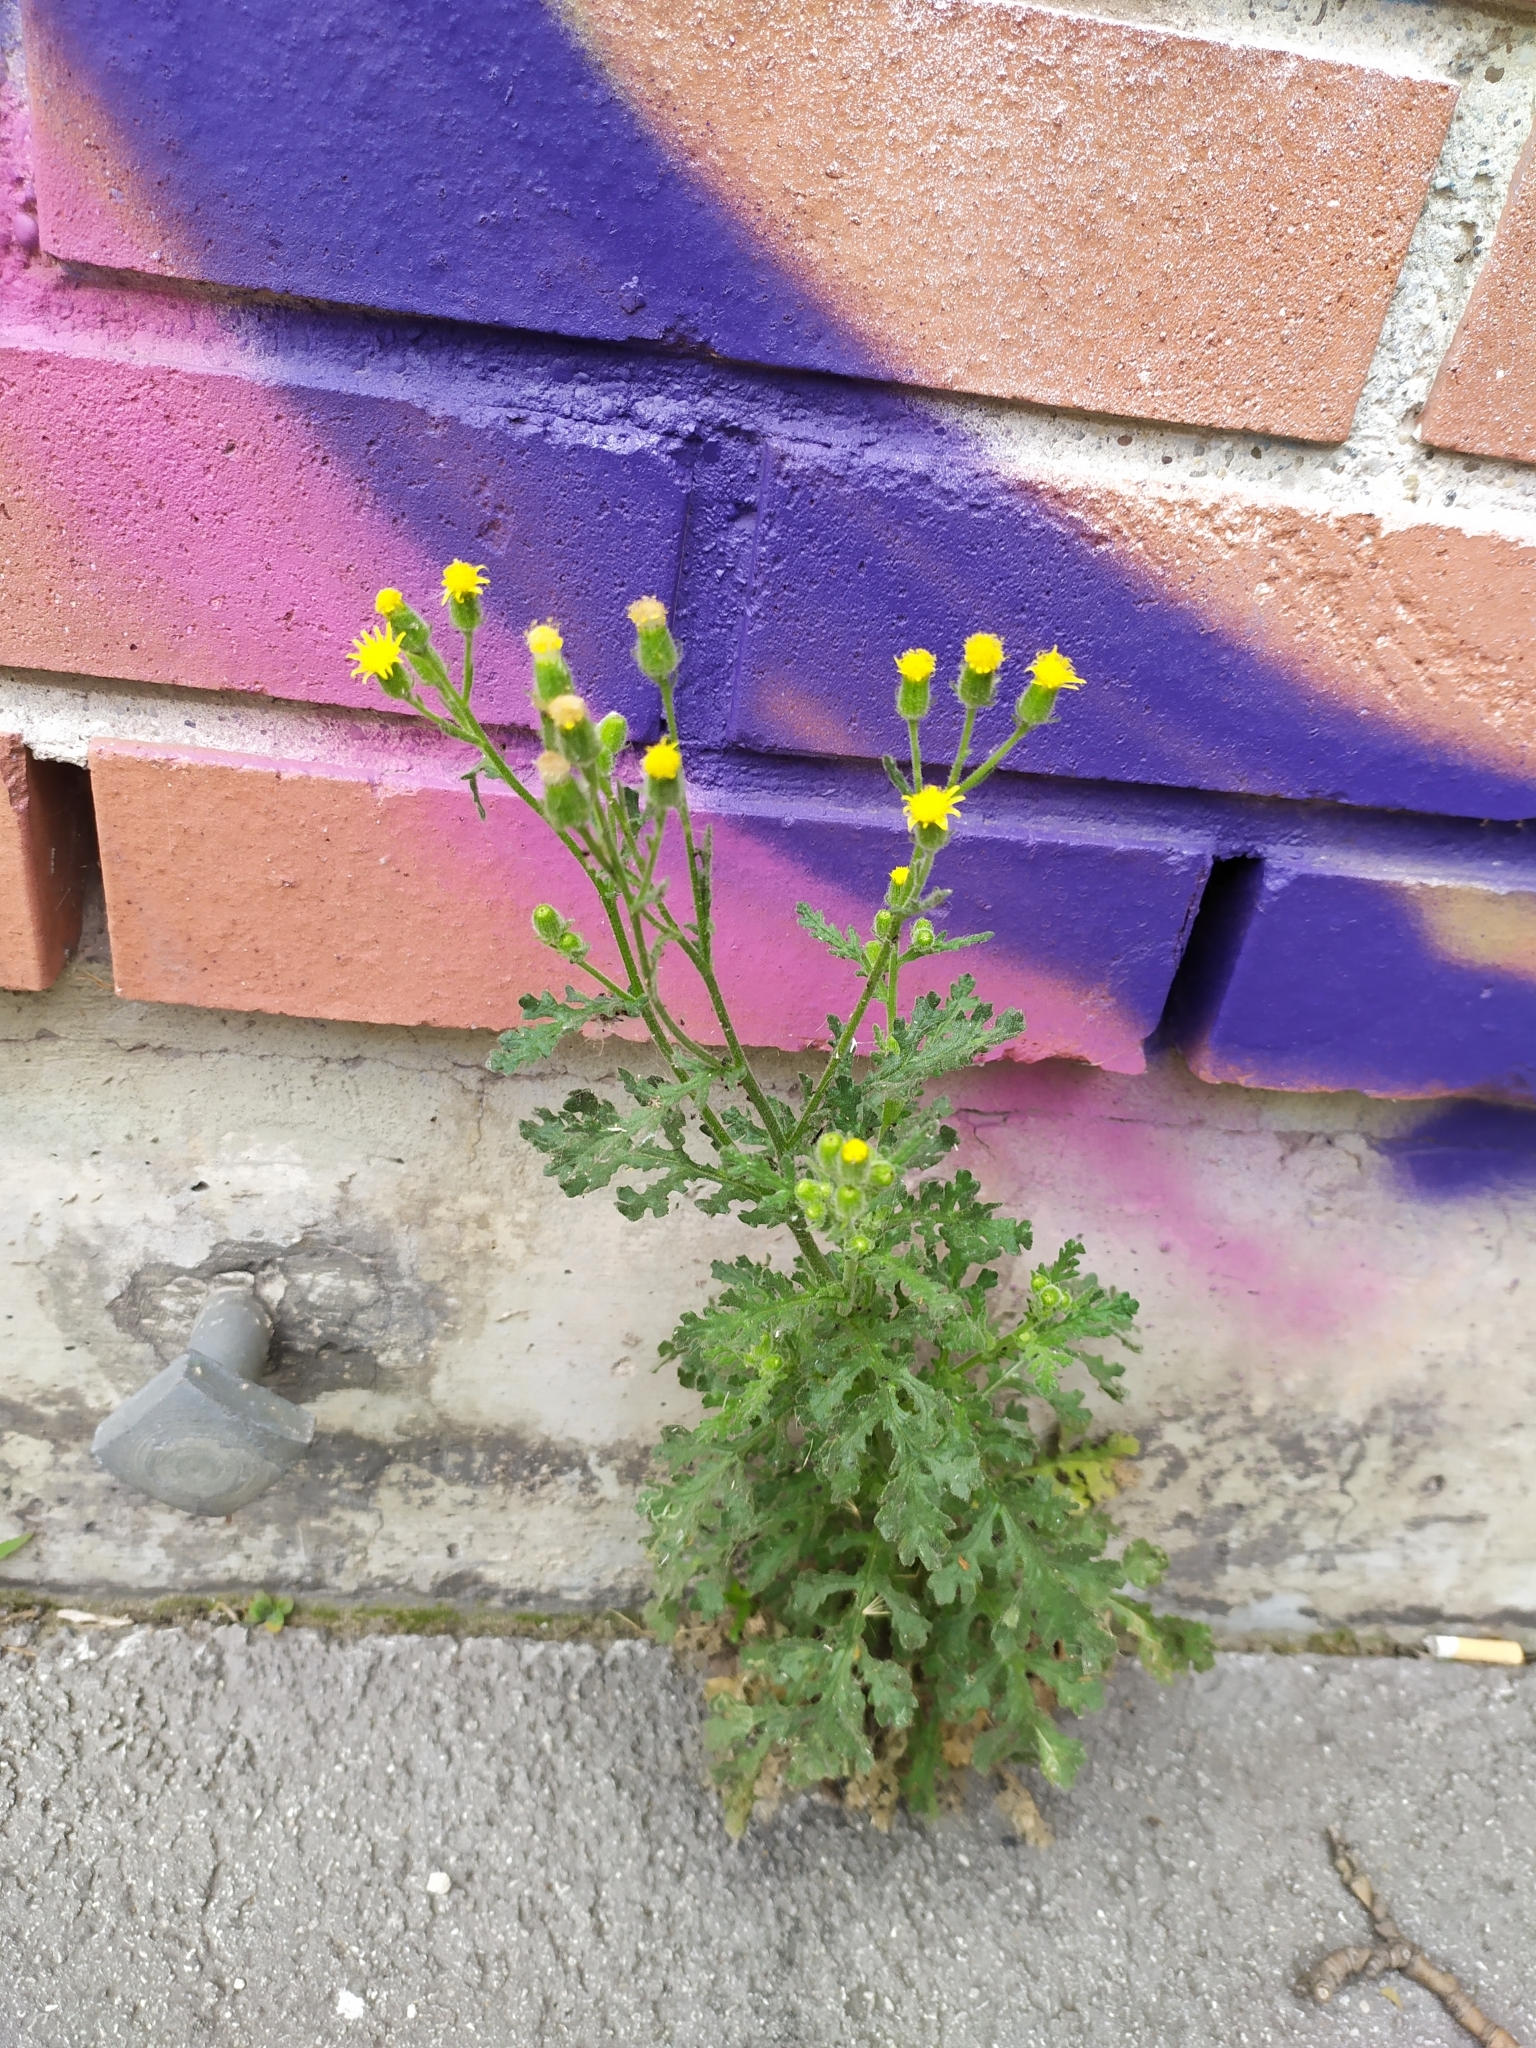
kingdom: Plantae
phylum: Tracheophyta
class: Magnoliopsida
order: Asterales
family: Asteraceae
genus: Senecio
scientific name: Senecio viscosus
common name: Sticky groundsel
